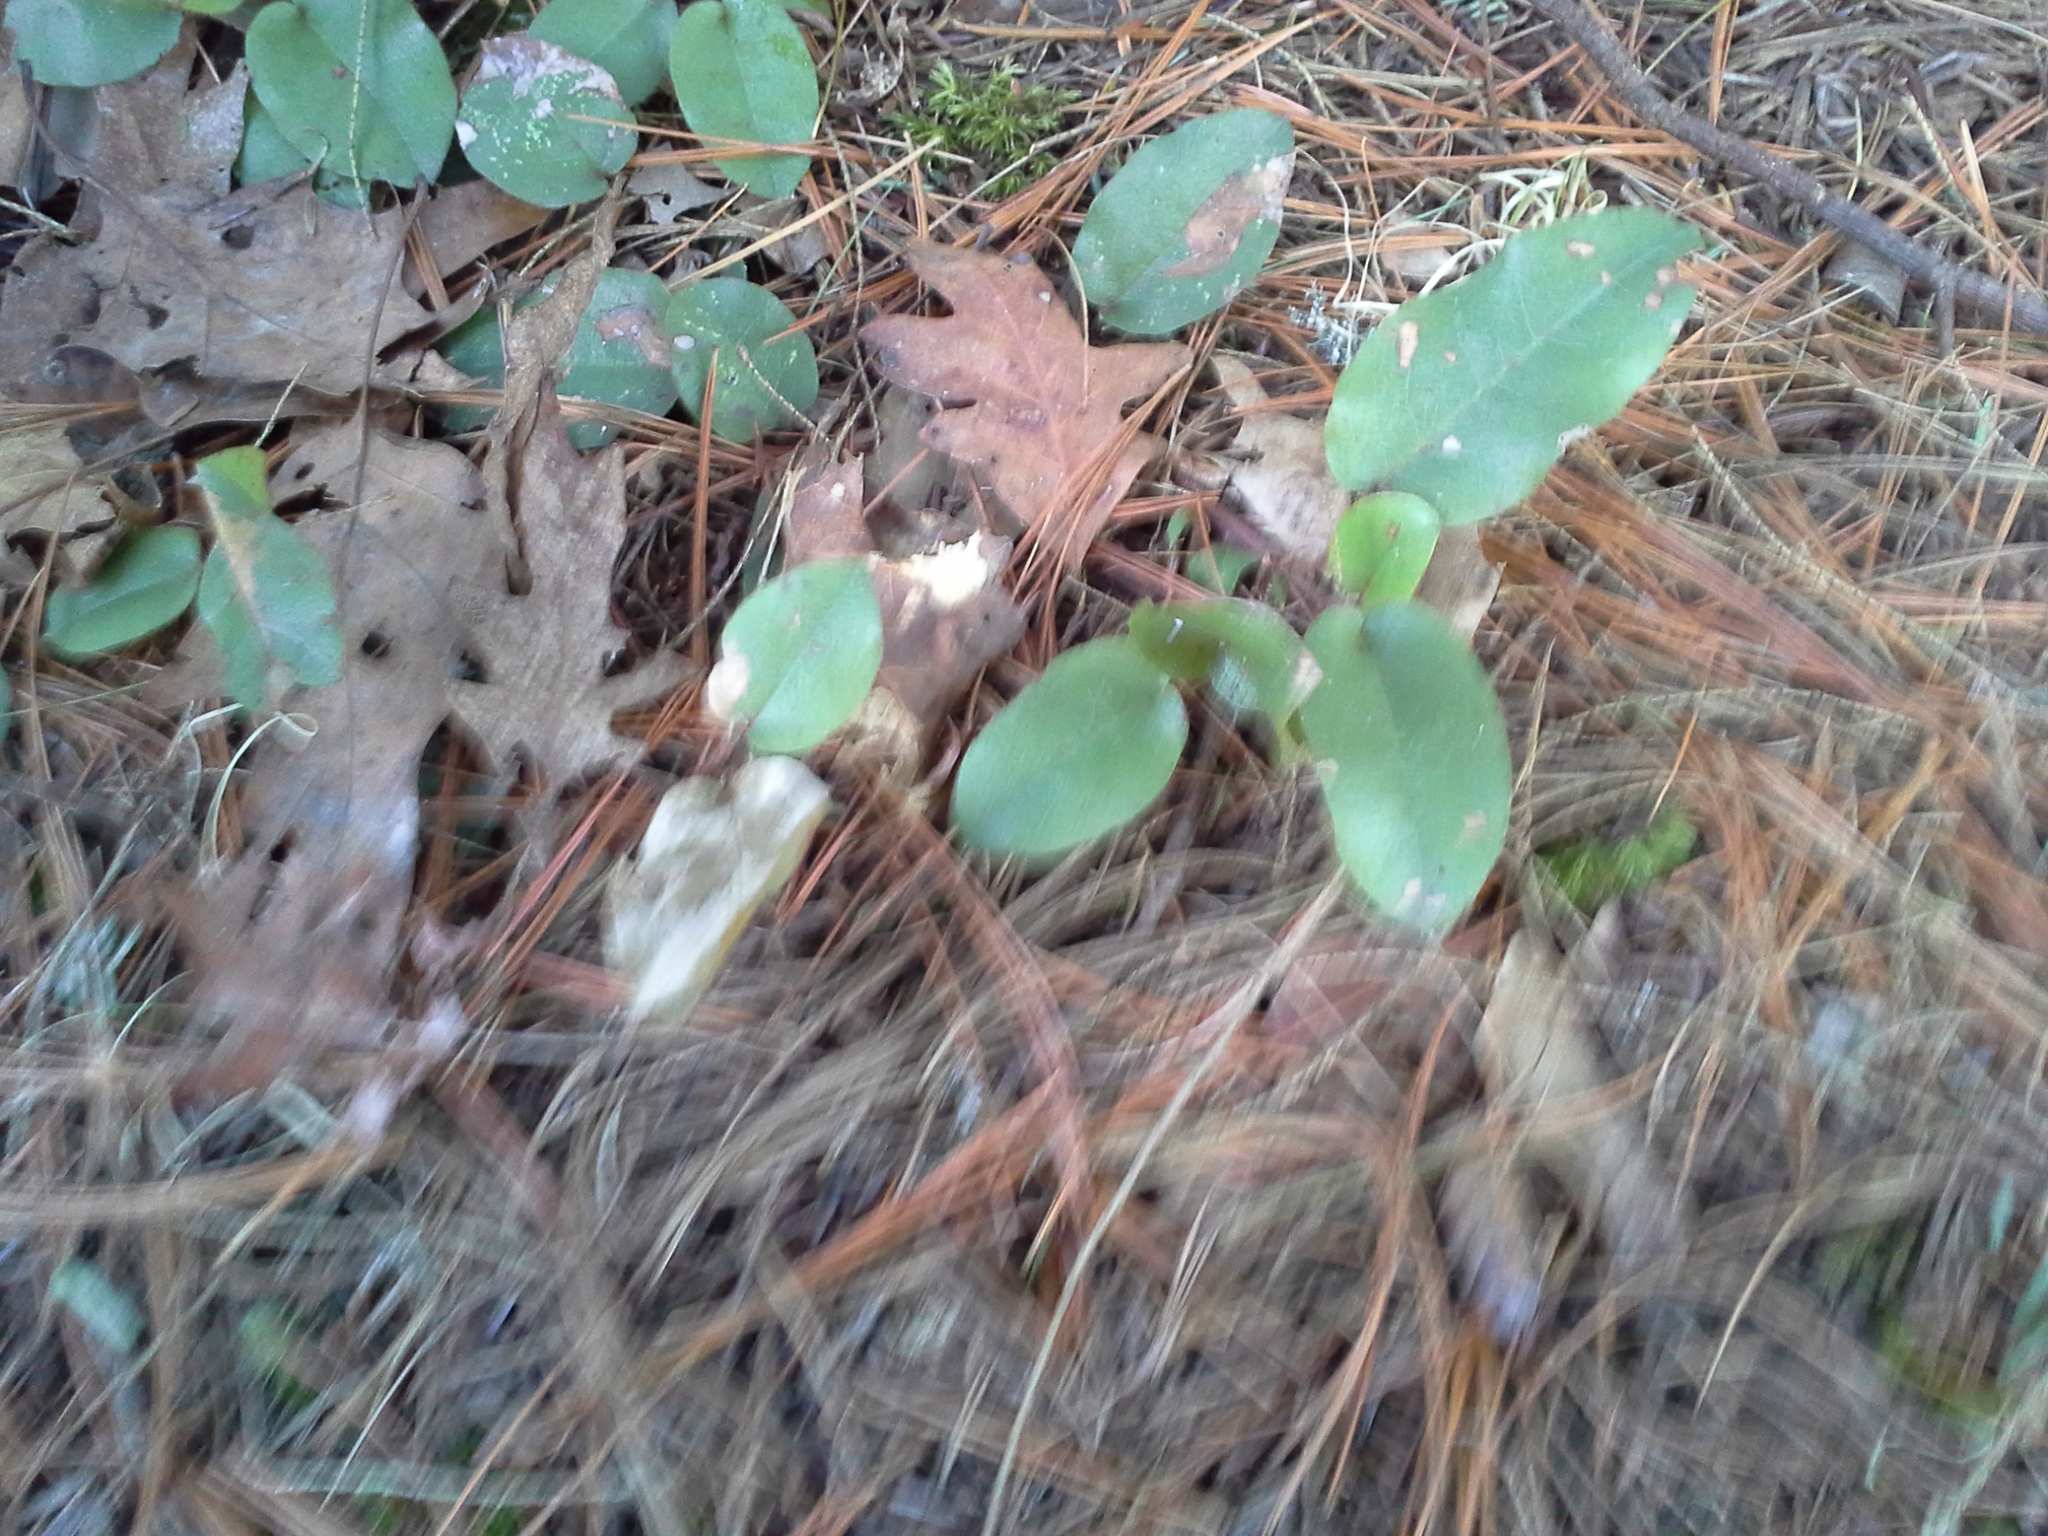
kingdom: Plantae
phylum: Tracheophyta
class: Magnoliopsida
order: Ericales
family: Ericaceae
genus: Epigaea
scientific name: Epigaea repens
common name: Gravelroot
